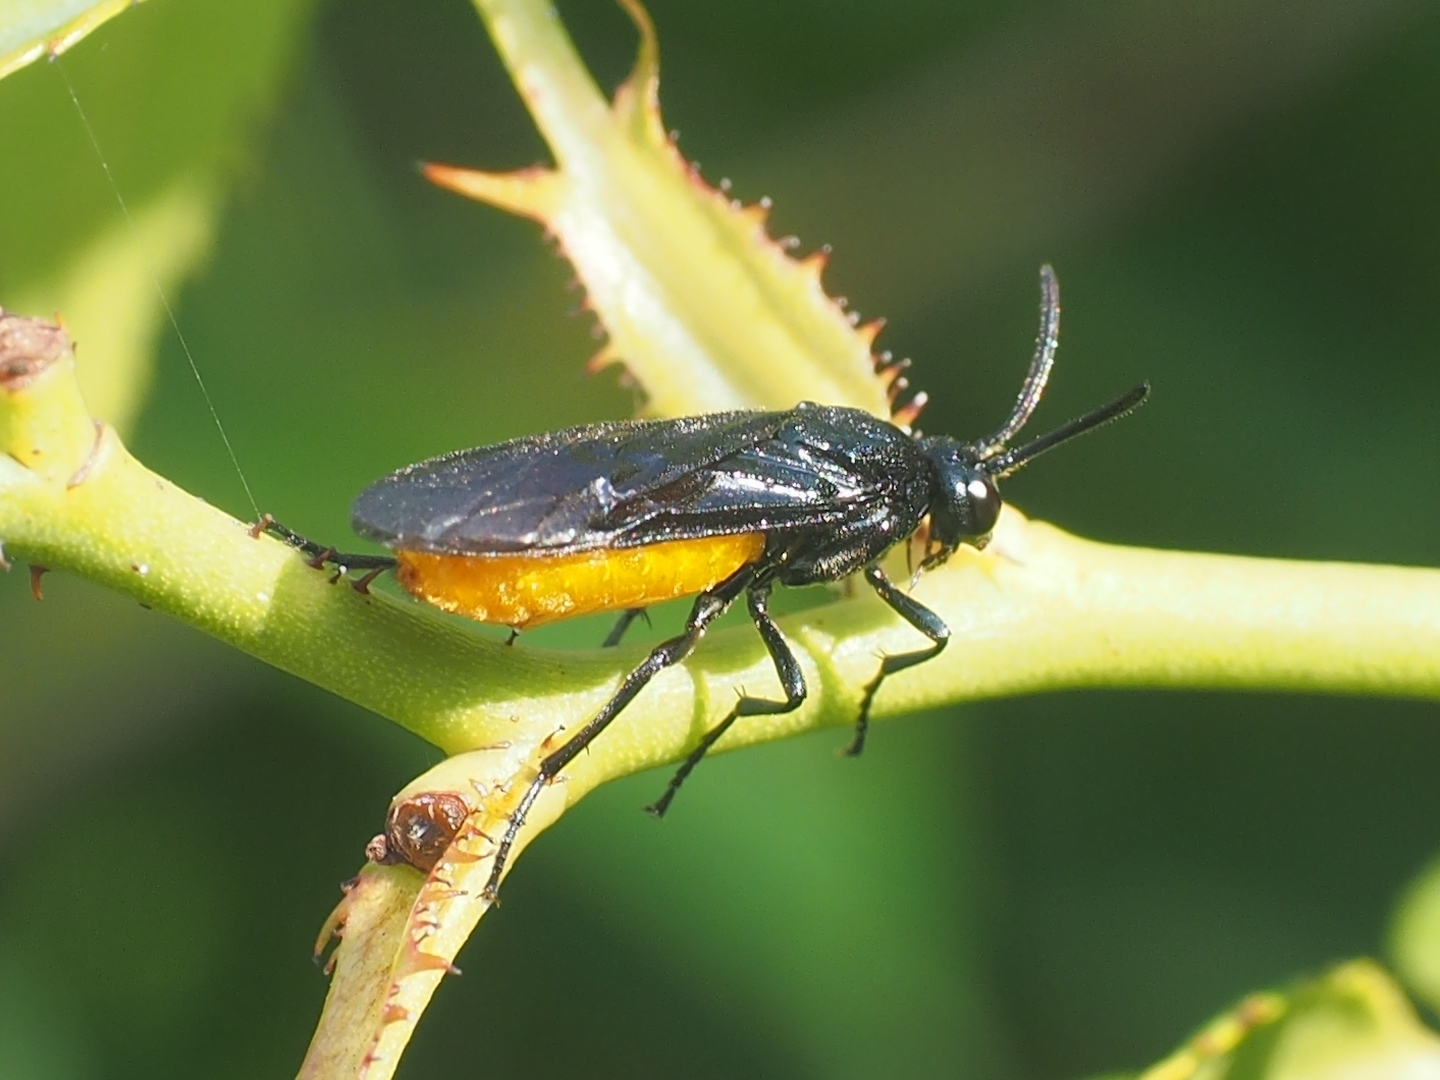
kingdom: Animalia
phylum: Arthropoda
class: Insecta
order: Hymenoptera
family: Argidae
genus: Arge
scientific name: Arge pagana
